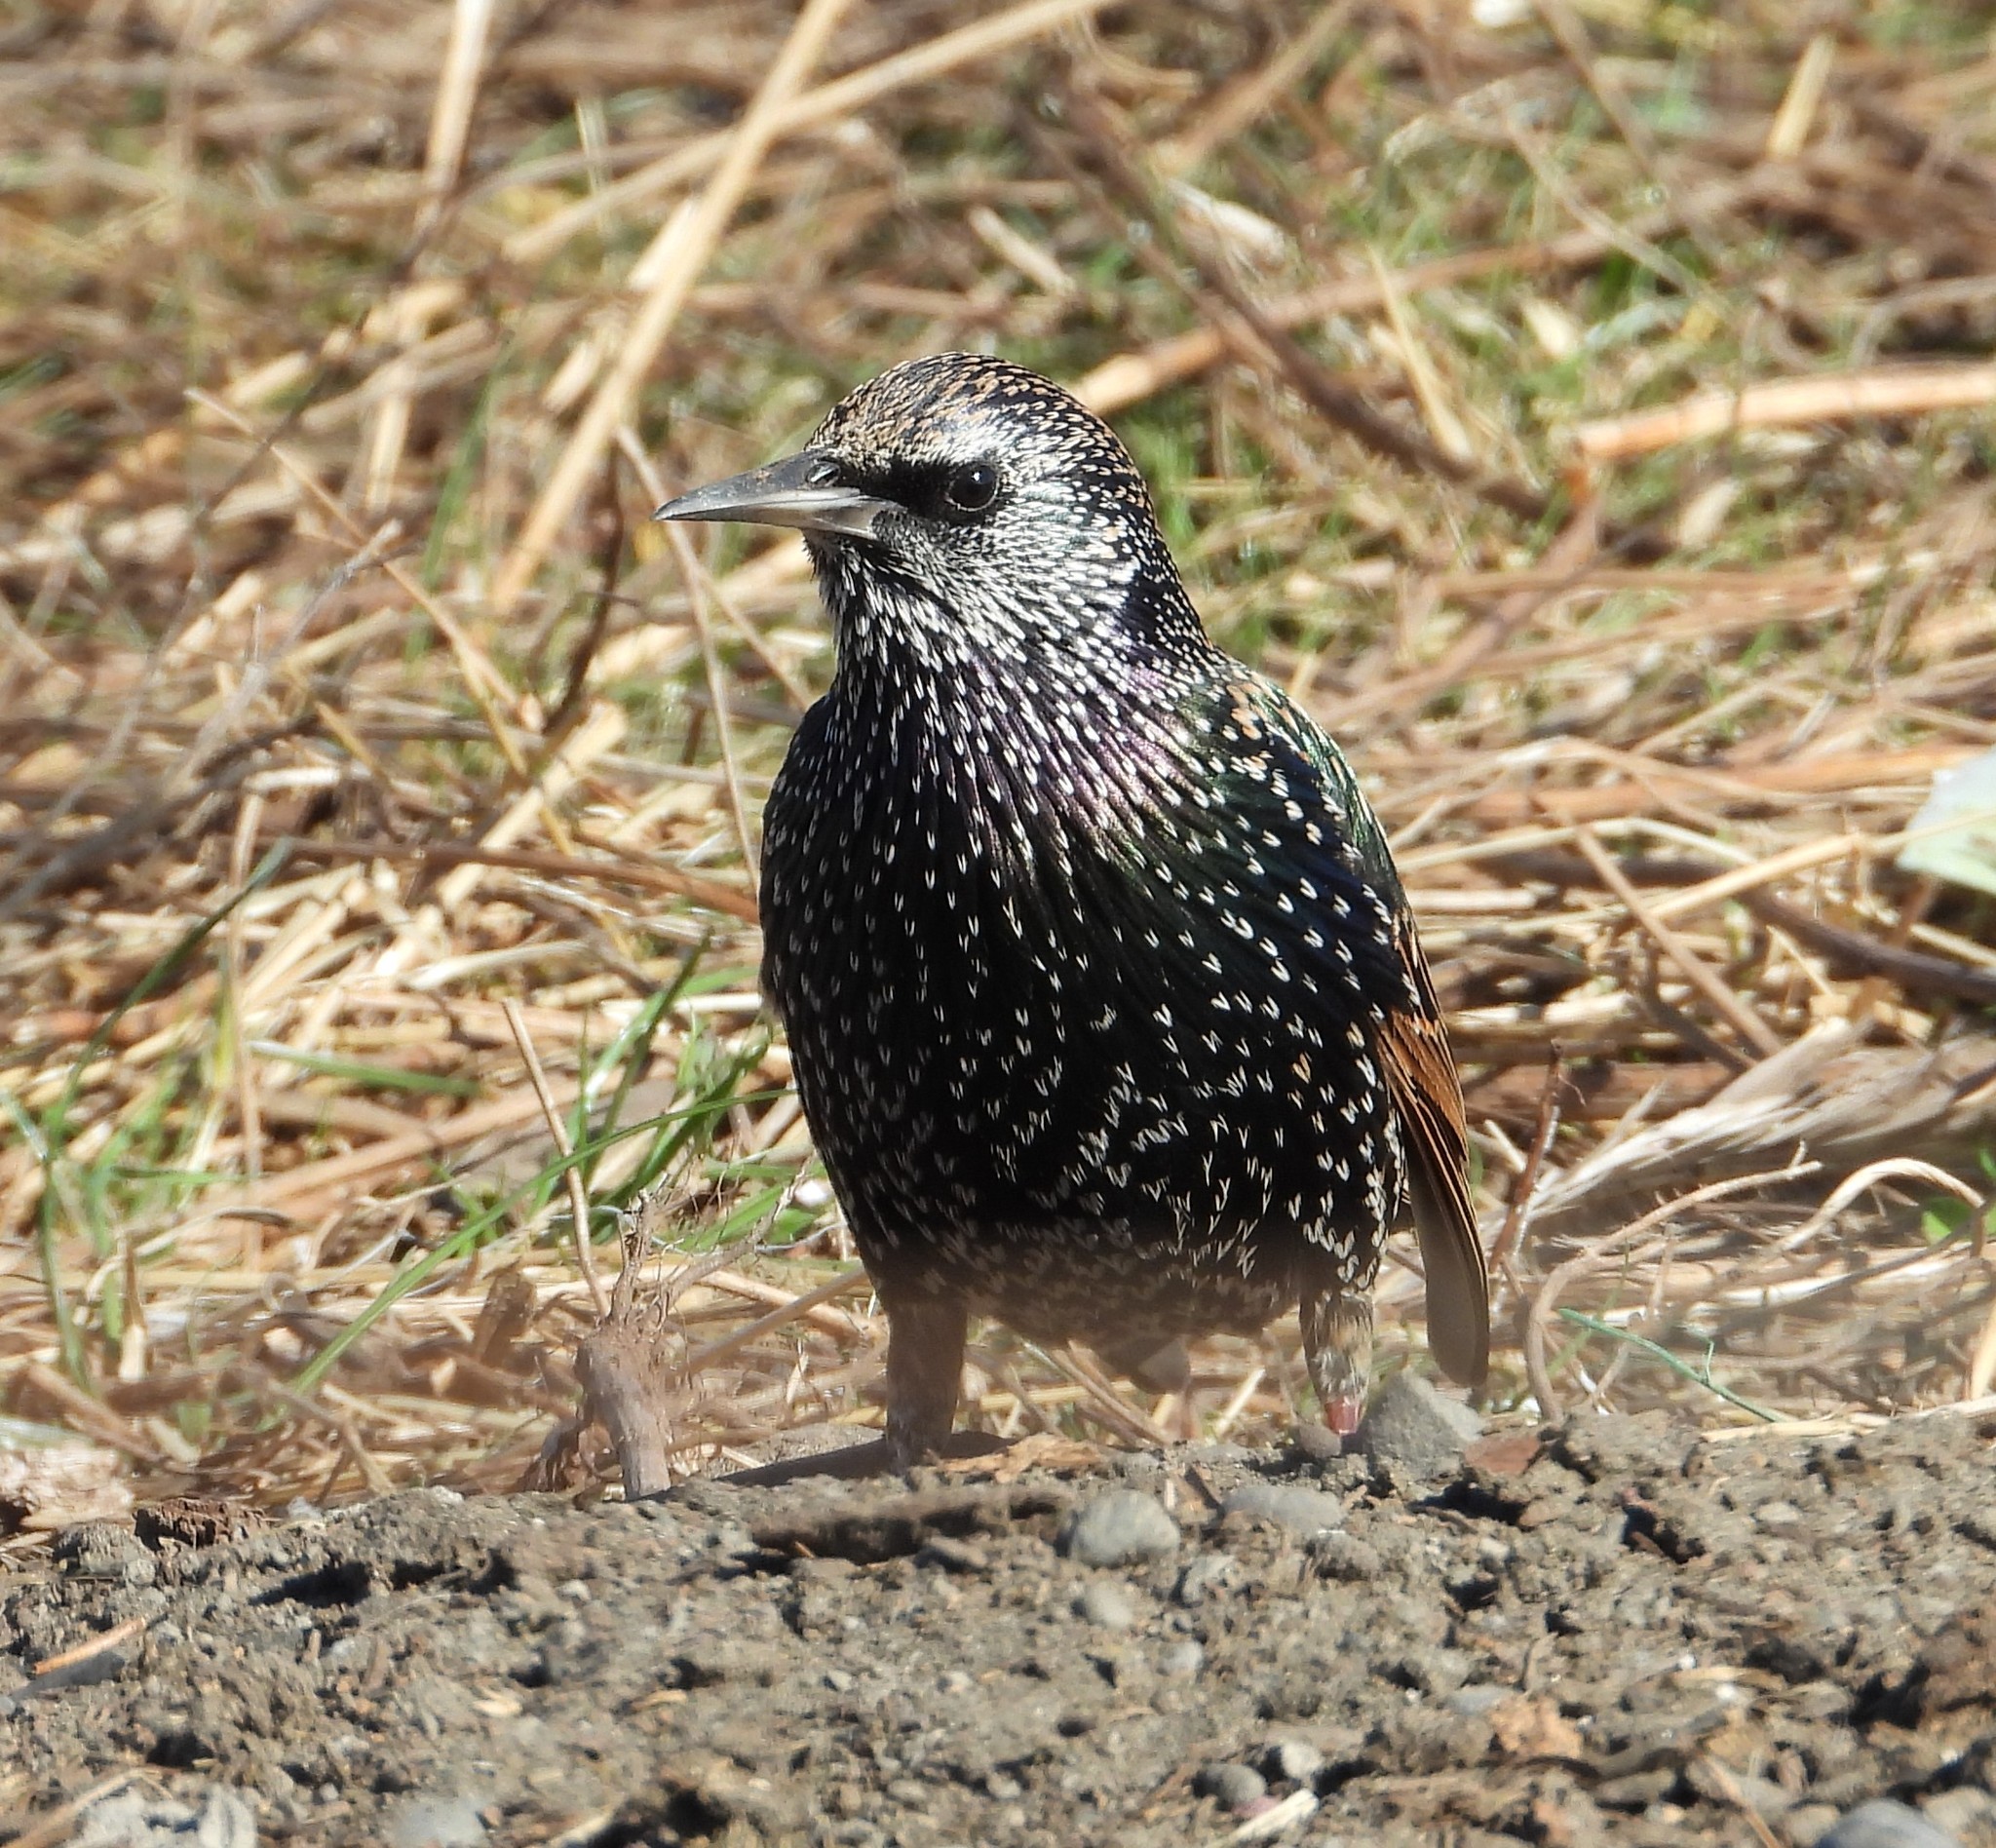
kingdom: Animalia
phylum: Chordata
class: Aves
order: Passeriformes
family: Sturnidae
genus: Sturnus
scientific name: Sturnus vulgaris
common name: Common starling
